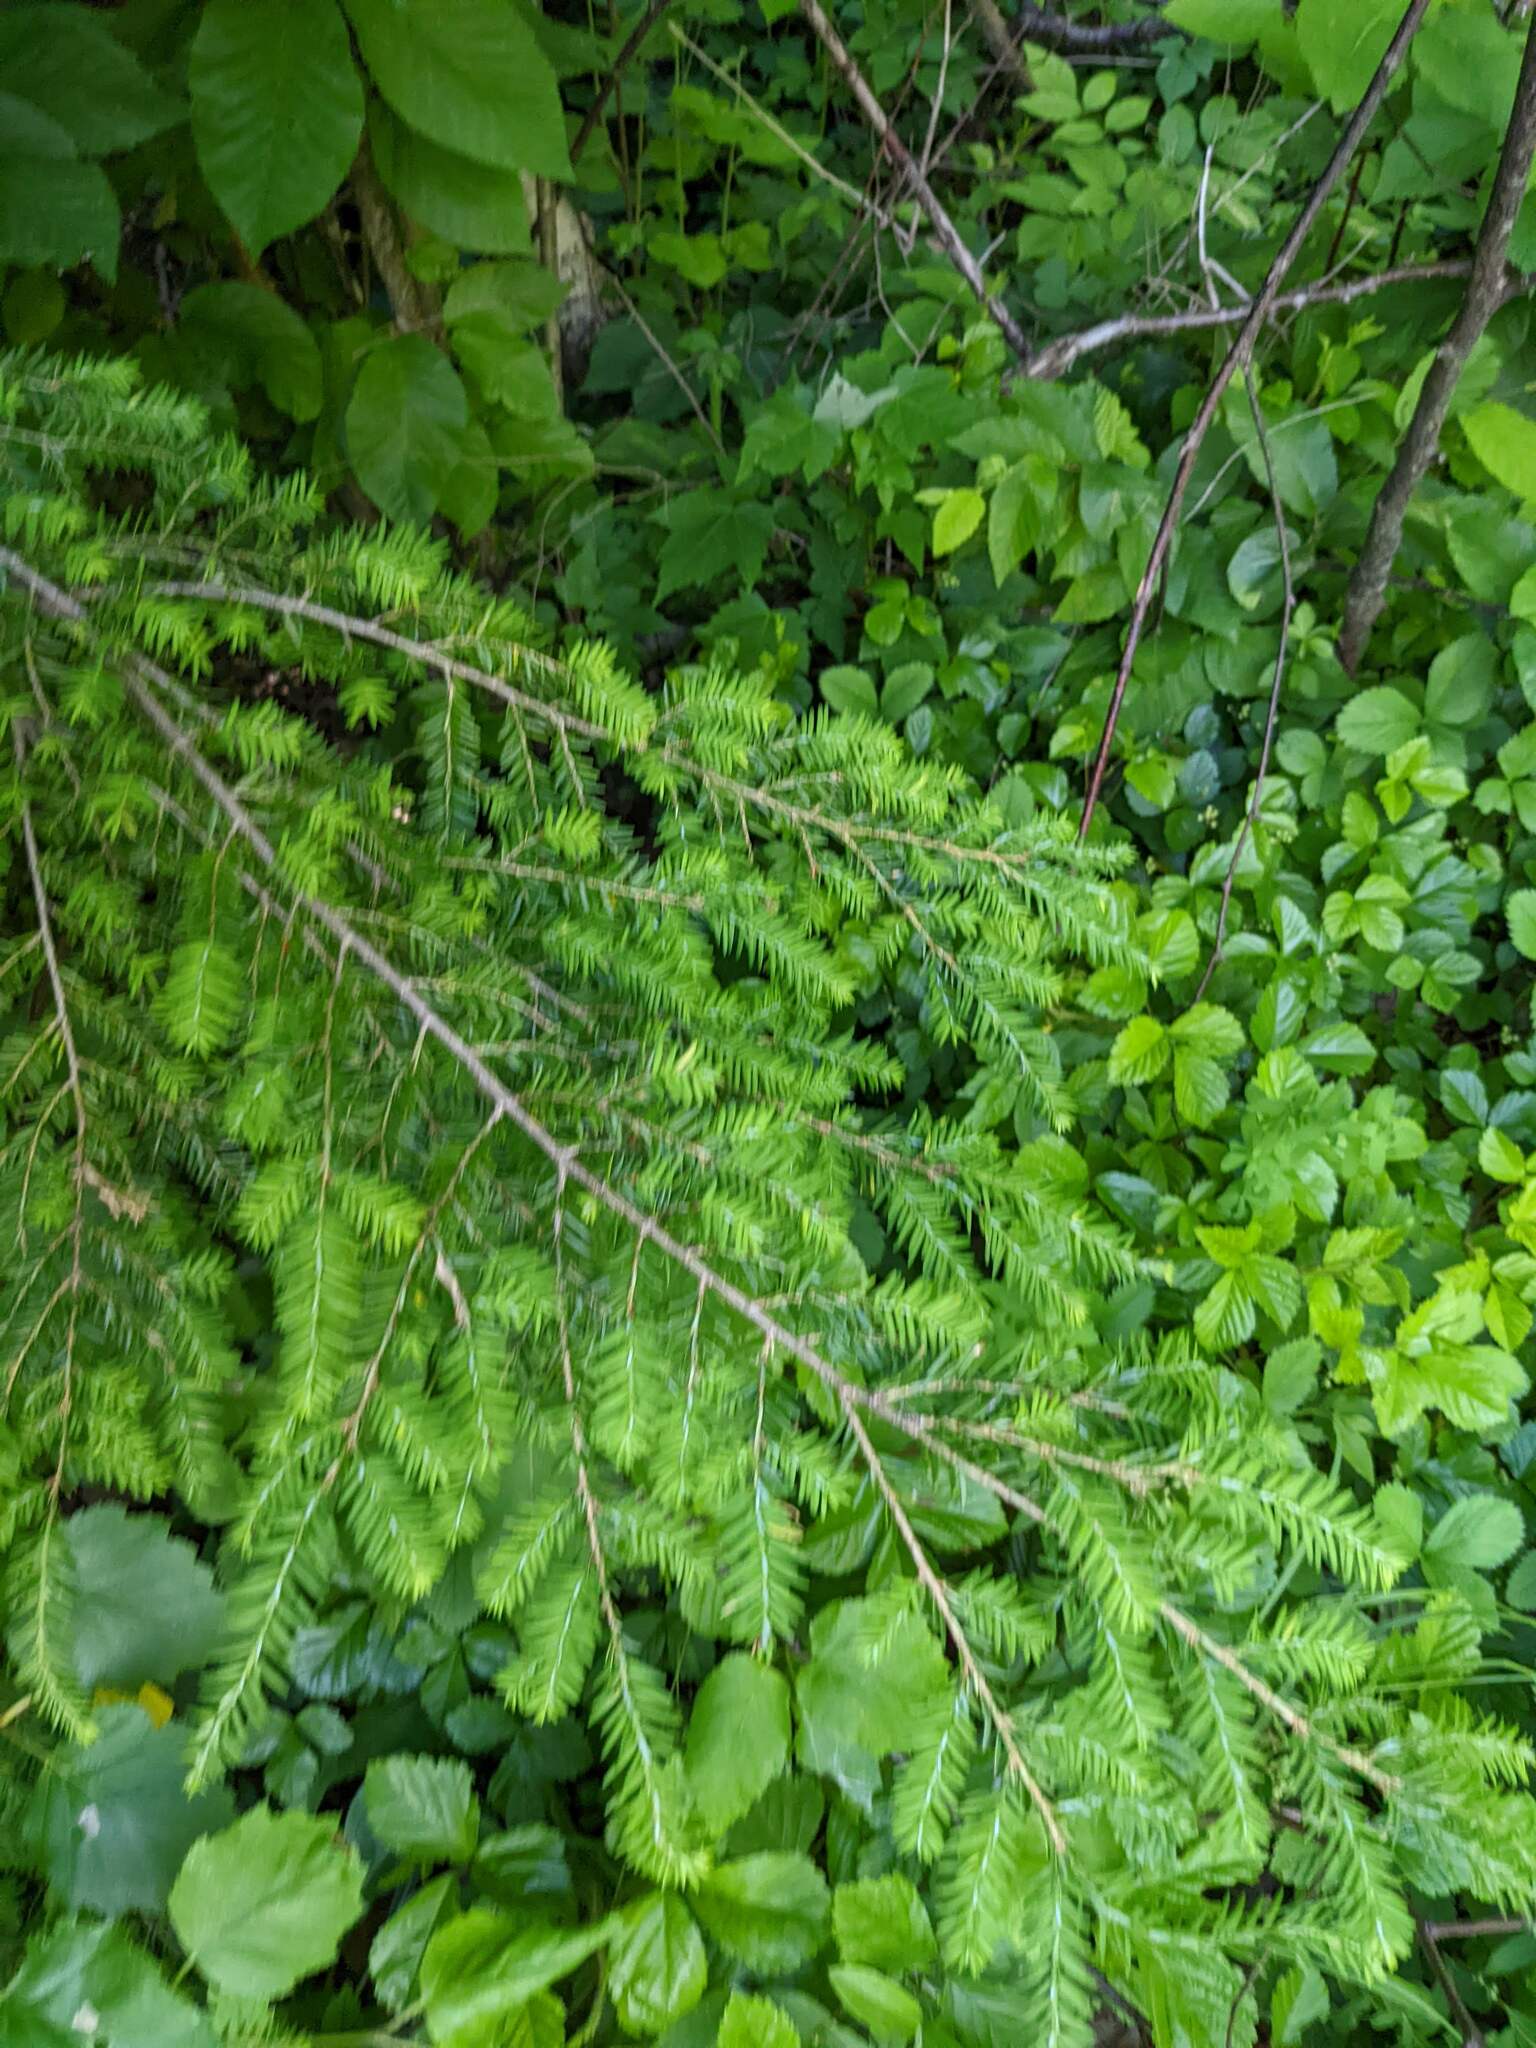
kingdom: Plantae
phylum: Tracheophyta
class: Pinopsida
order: Pinales
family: Pinaceae
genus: Tsuga
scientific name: Tsuga canadensis
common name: Eastern hemlock
